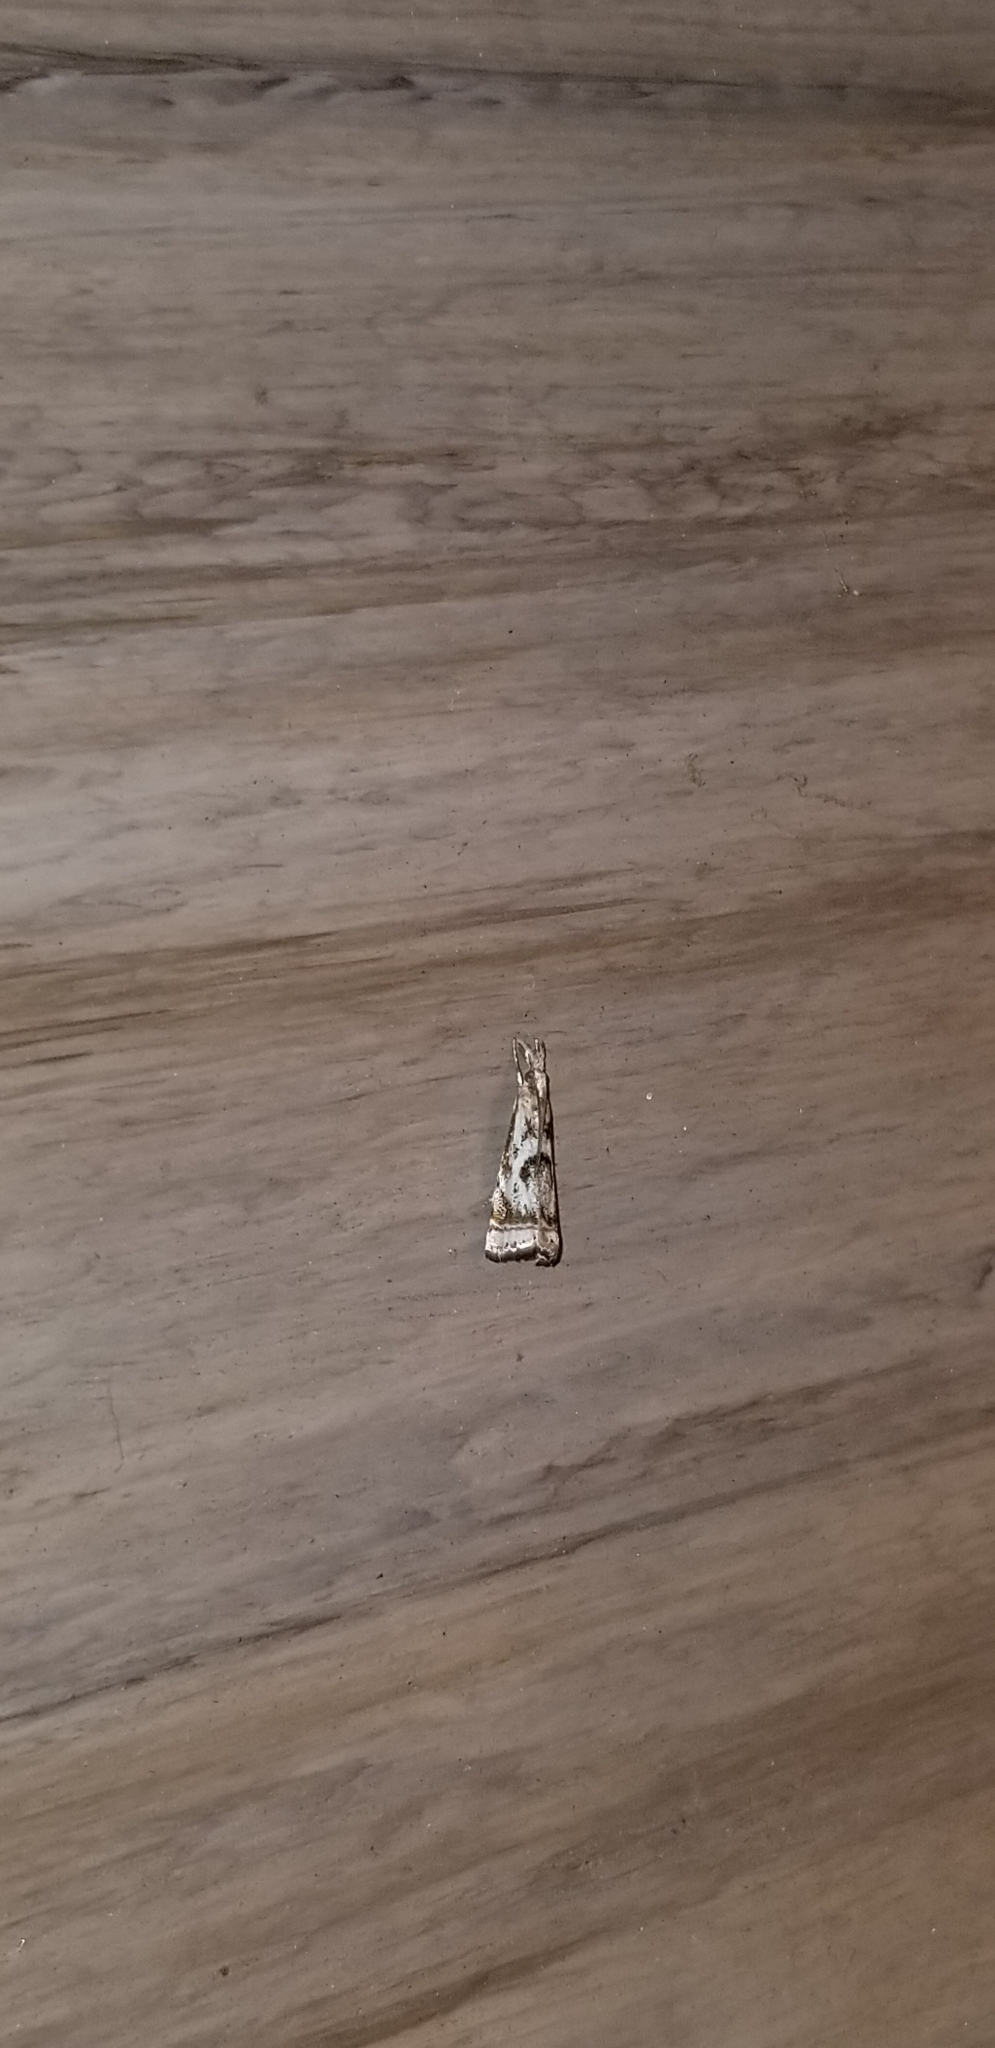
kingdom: Animalia
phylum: Arthropoda
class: Insecta
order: Lepidoptera
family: Crambidae
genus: Microcrambus
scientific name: Microcrambus elegans
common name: Elegant grass-veneer
